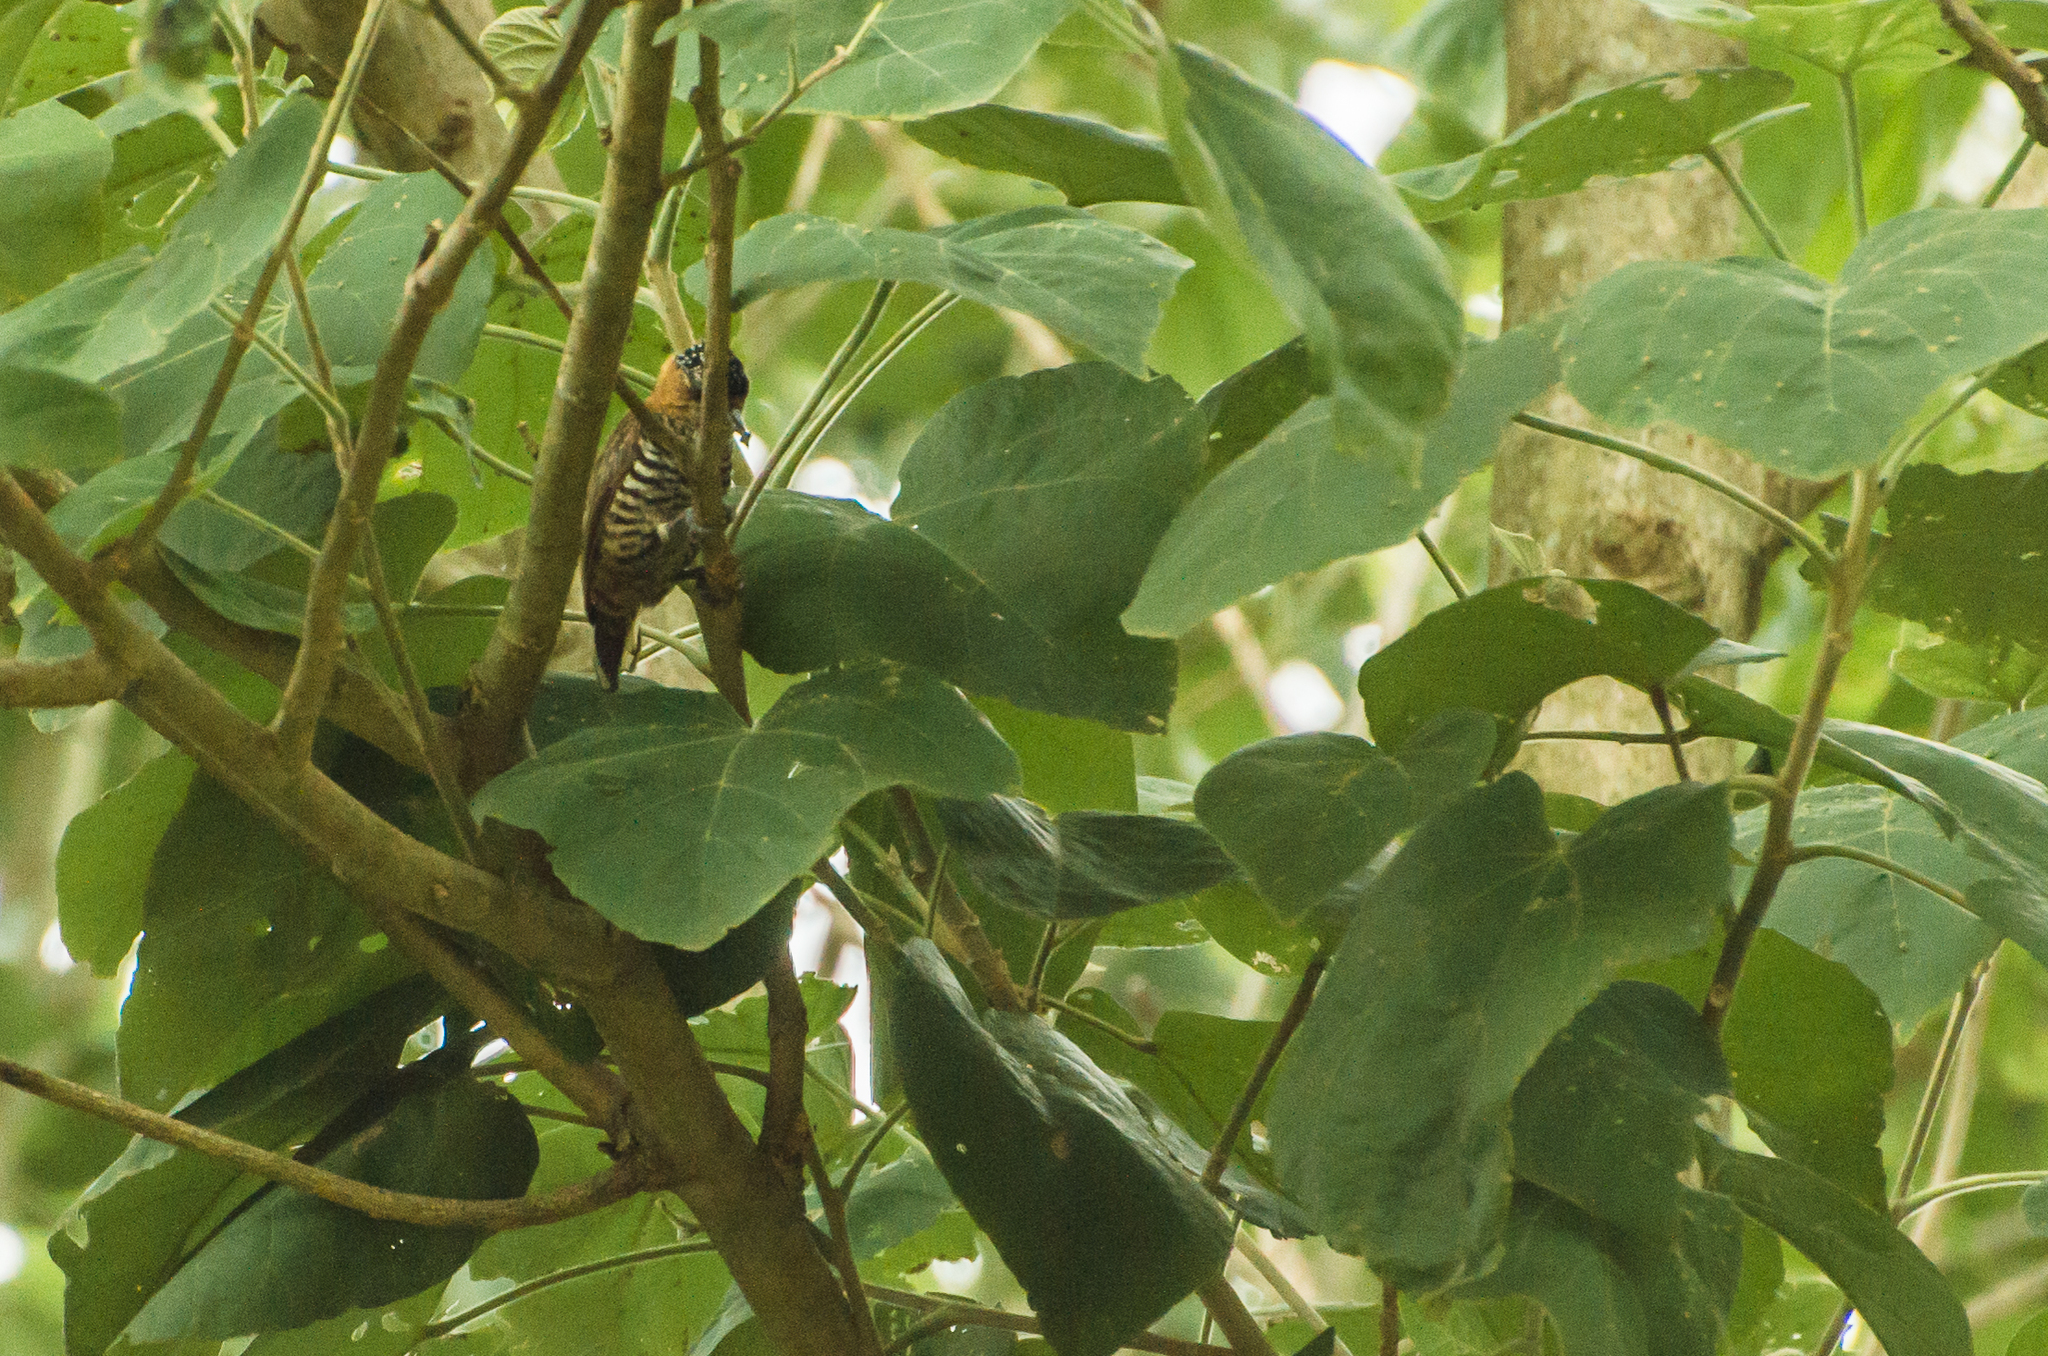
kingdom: Animalia
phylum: Chordata
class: Aves
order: Piciformes
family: Picidae
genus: Picumnus
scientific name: Picumnus temminckii
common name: Ochre-collared piculet
